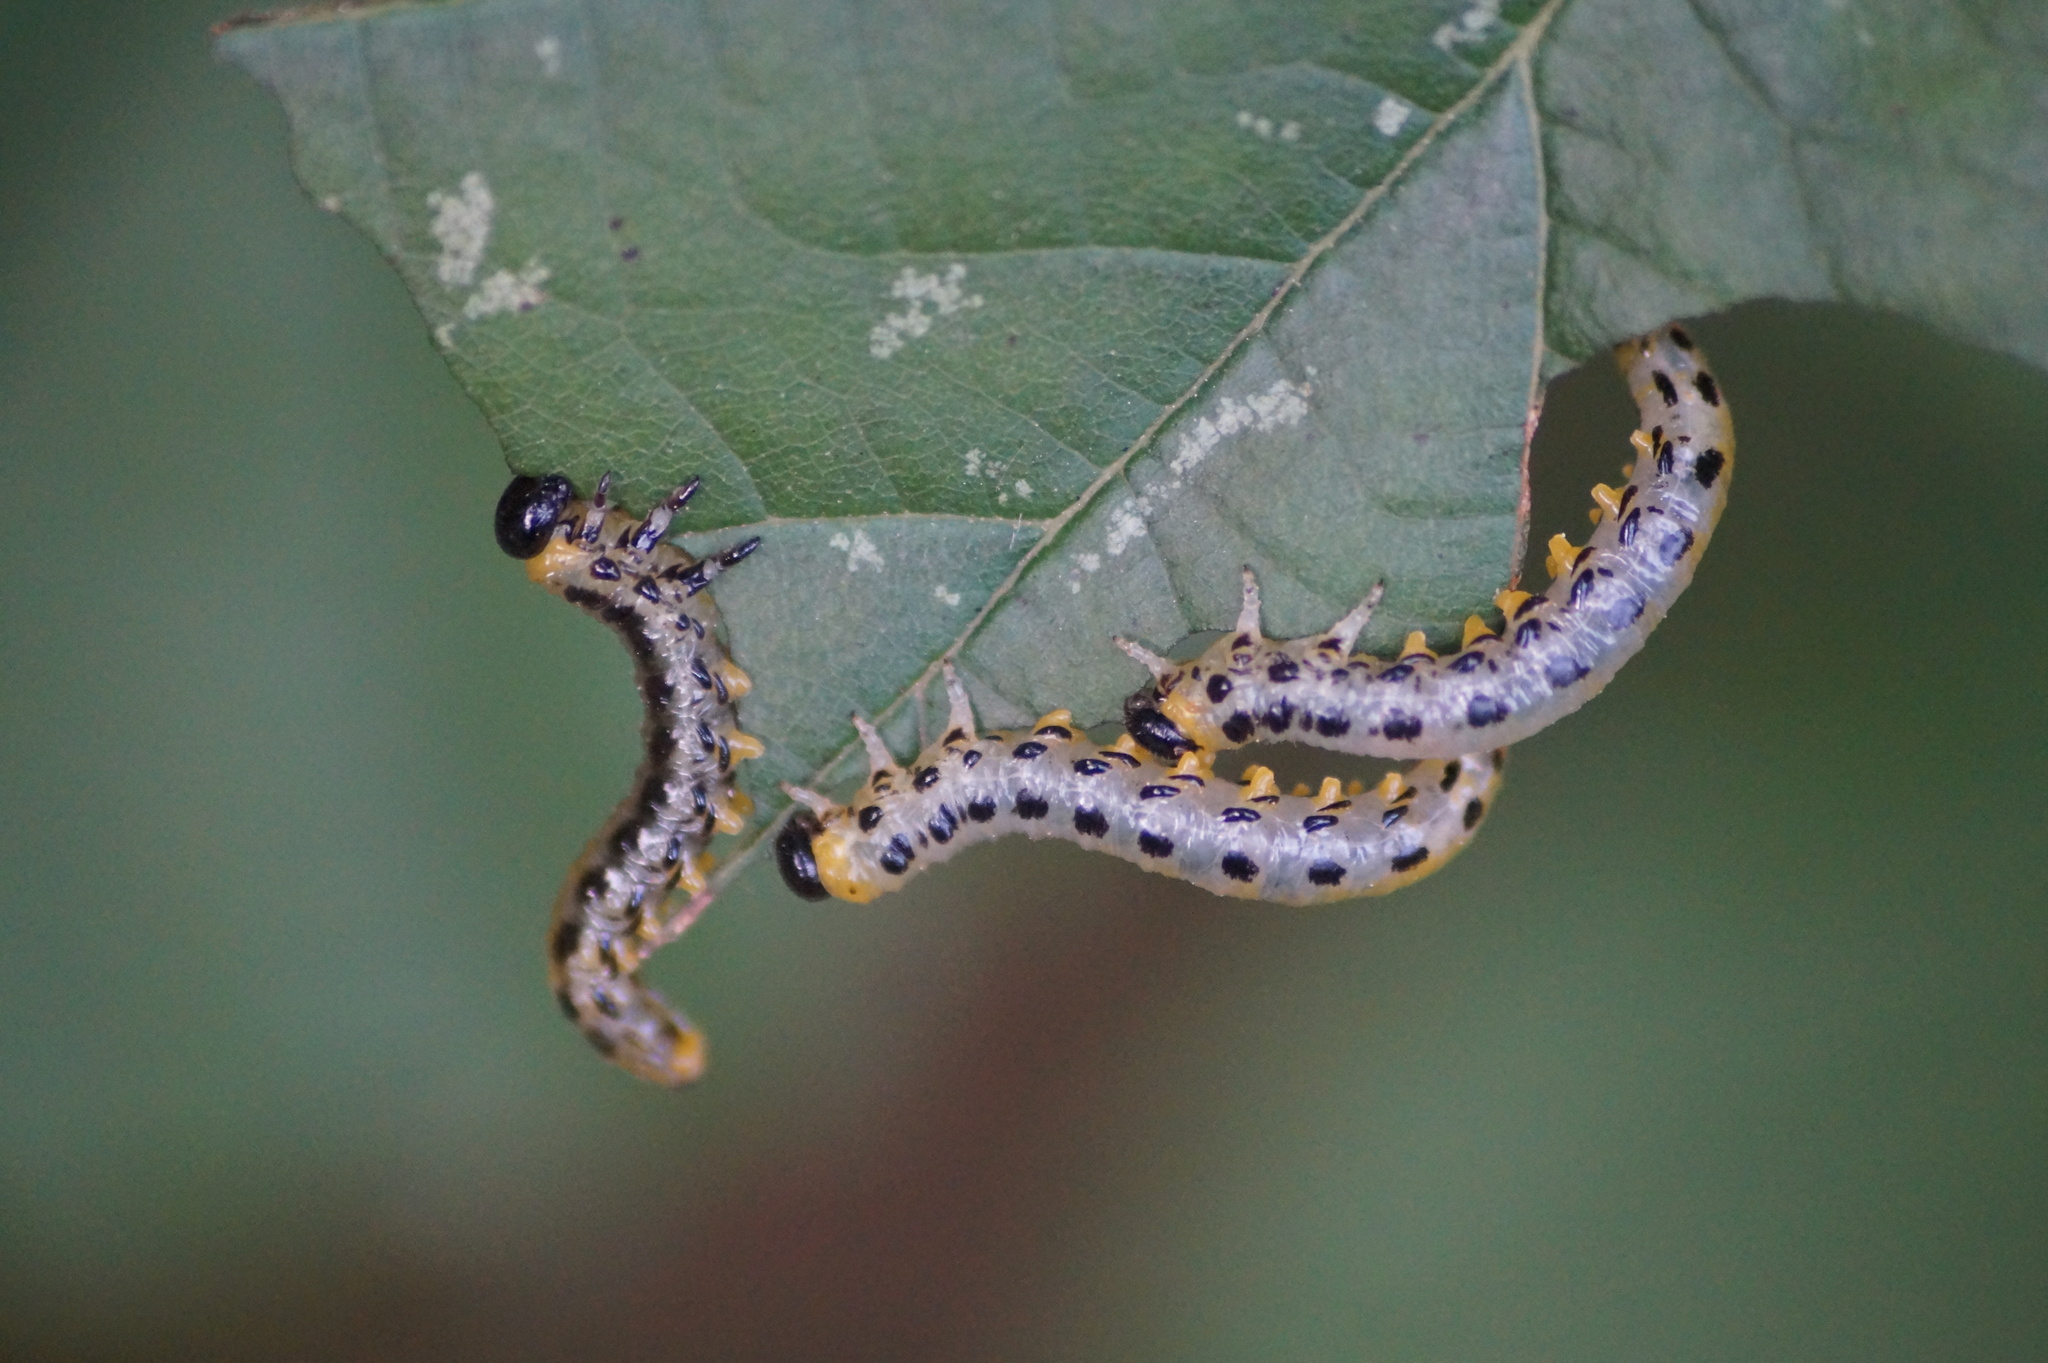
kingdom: Animalia
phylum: Arthropoda
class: Insecta
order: Hymenoptera
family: Tenthredinidae
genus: Craesus
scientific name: Craesus septentrionalis
